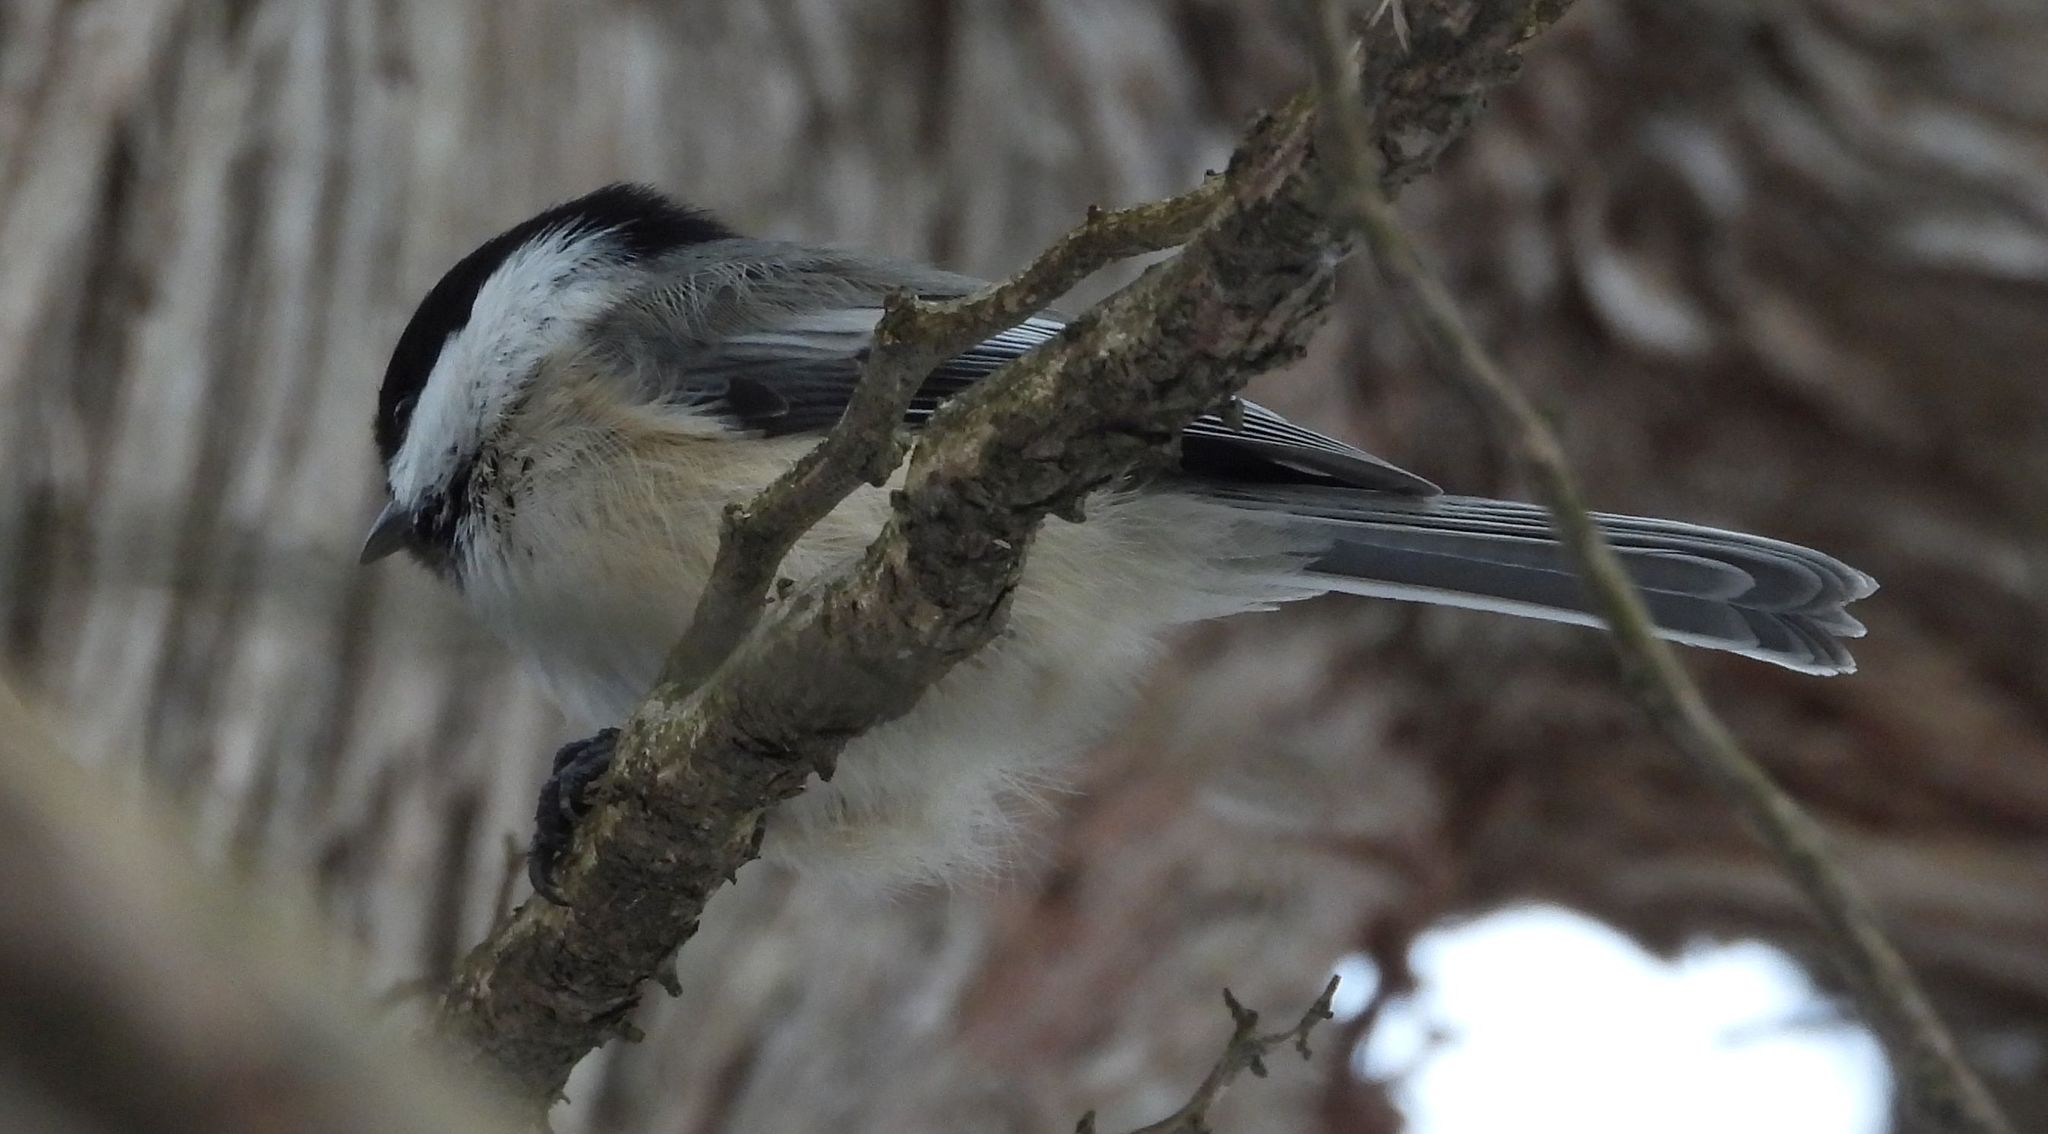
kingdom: Animalia
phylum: Chordata
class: Aves
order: Passeriformes
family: Paridae
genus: Poecile
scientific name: Poecile atricapillus
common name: Black-capped chickadee
